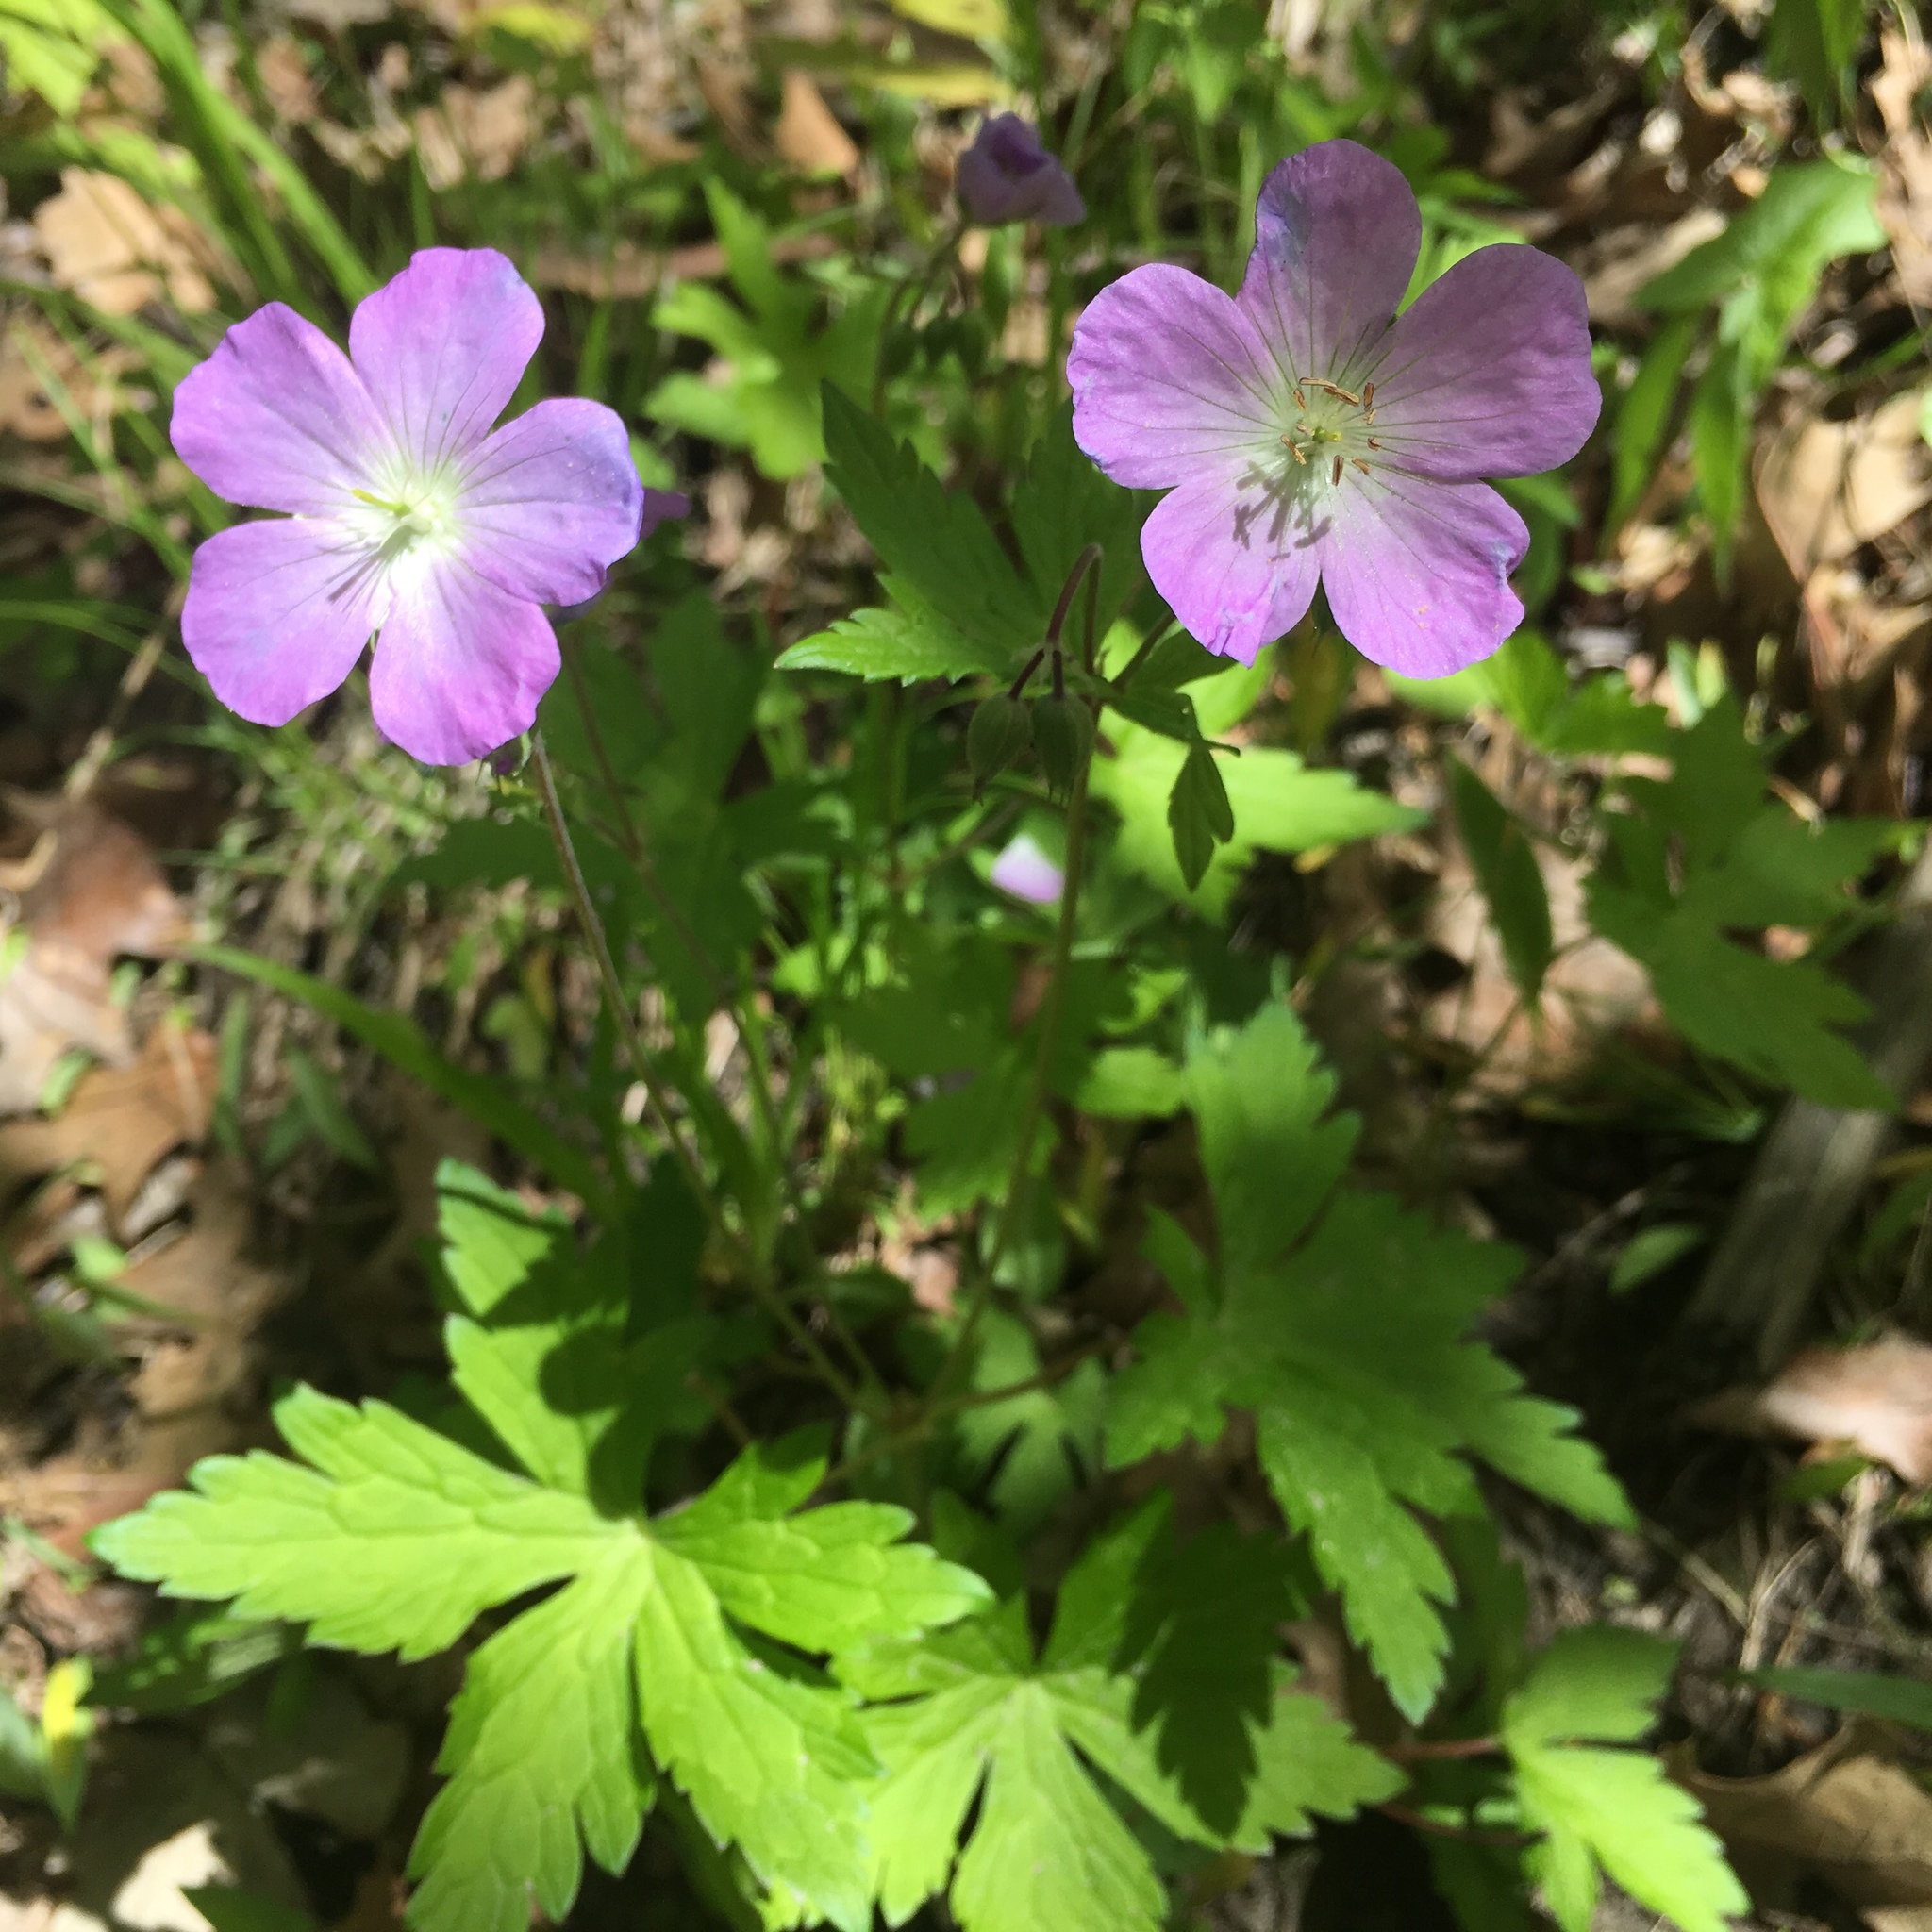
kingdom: Plantae
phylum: Tracheophyta
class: Magnoliopsida
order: Geraniales
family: Geraniaceae
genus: Geranium
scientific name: Geranium maculatum
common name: Spotted geranium
